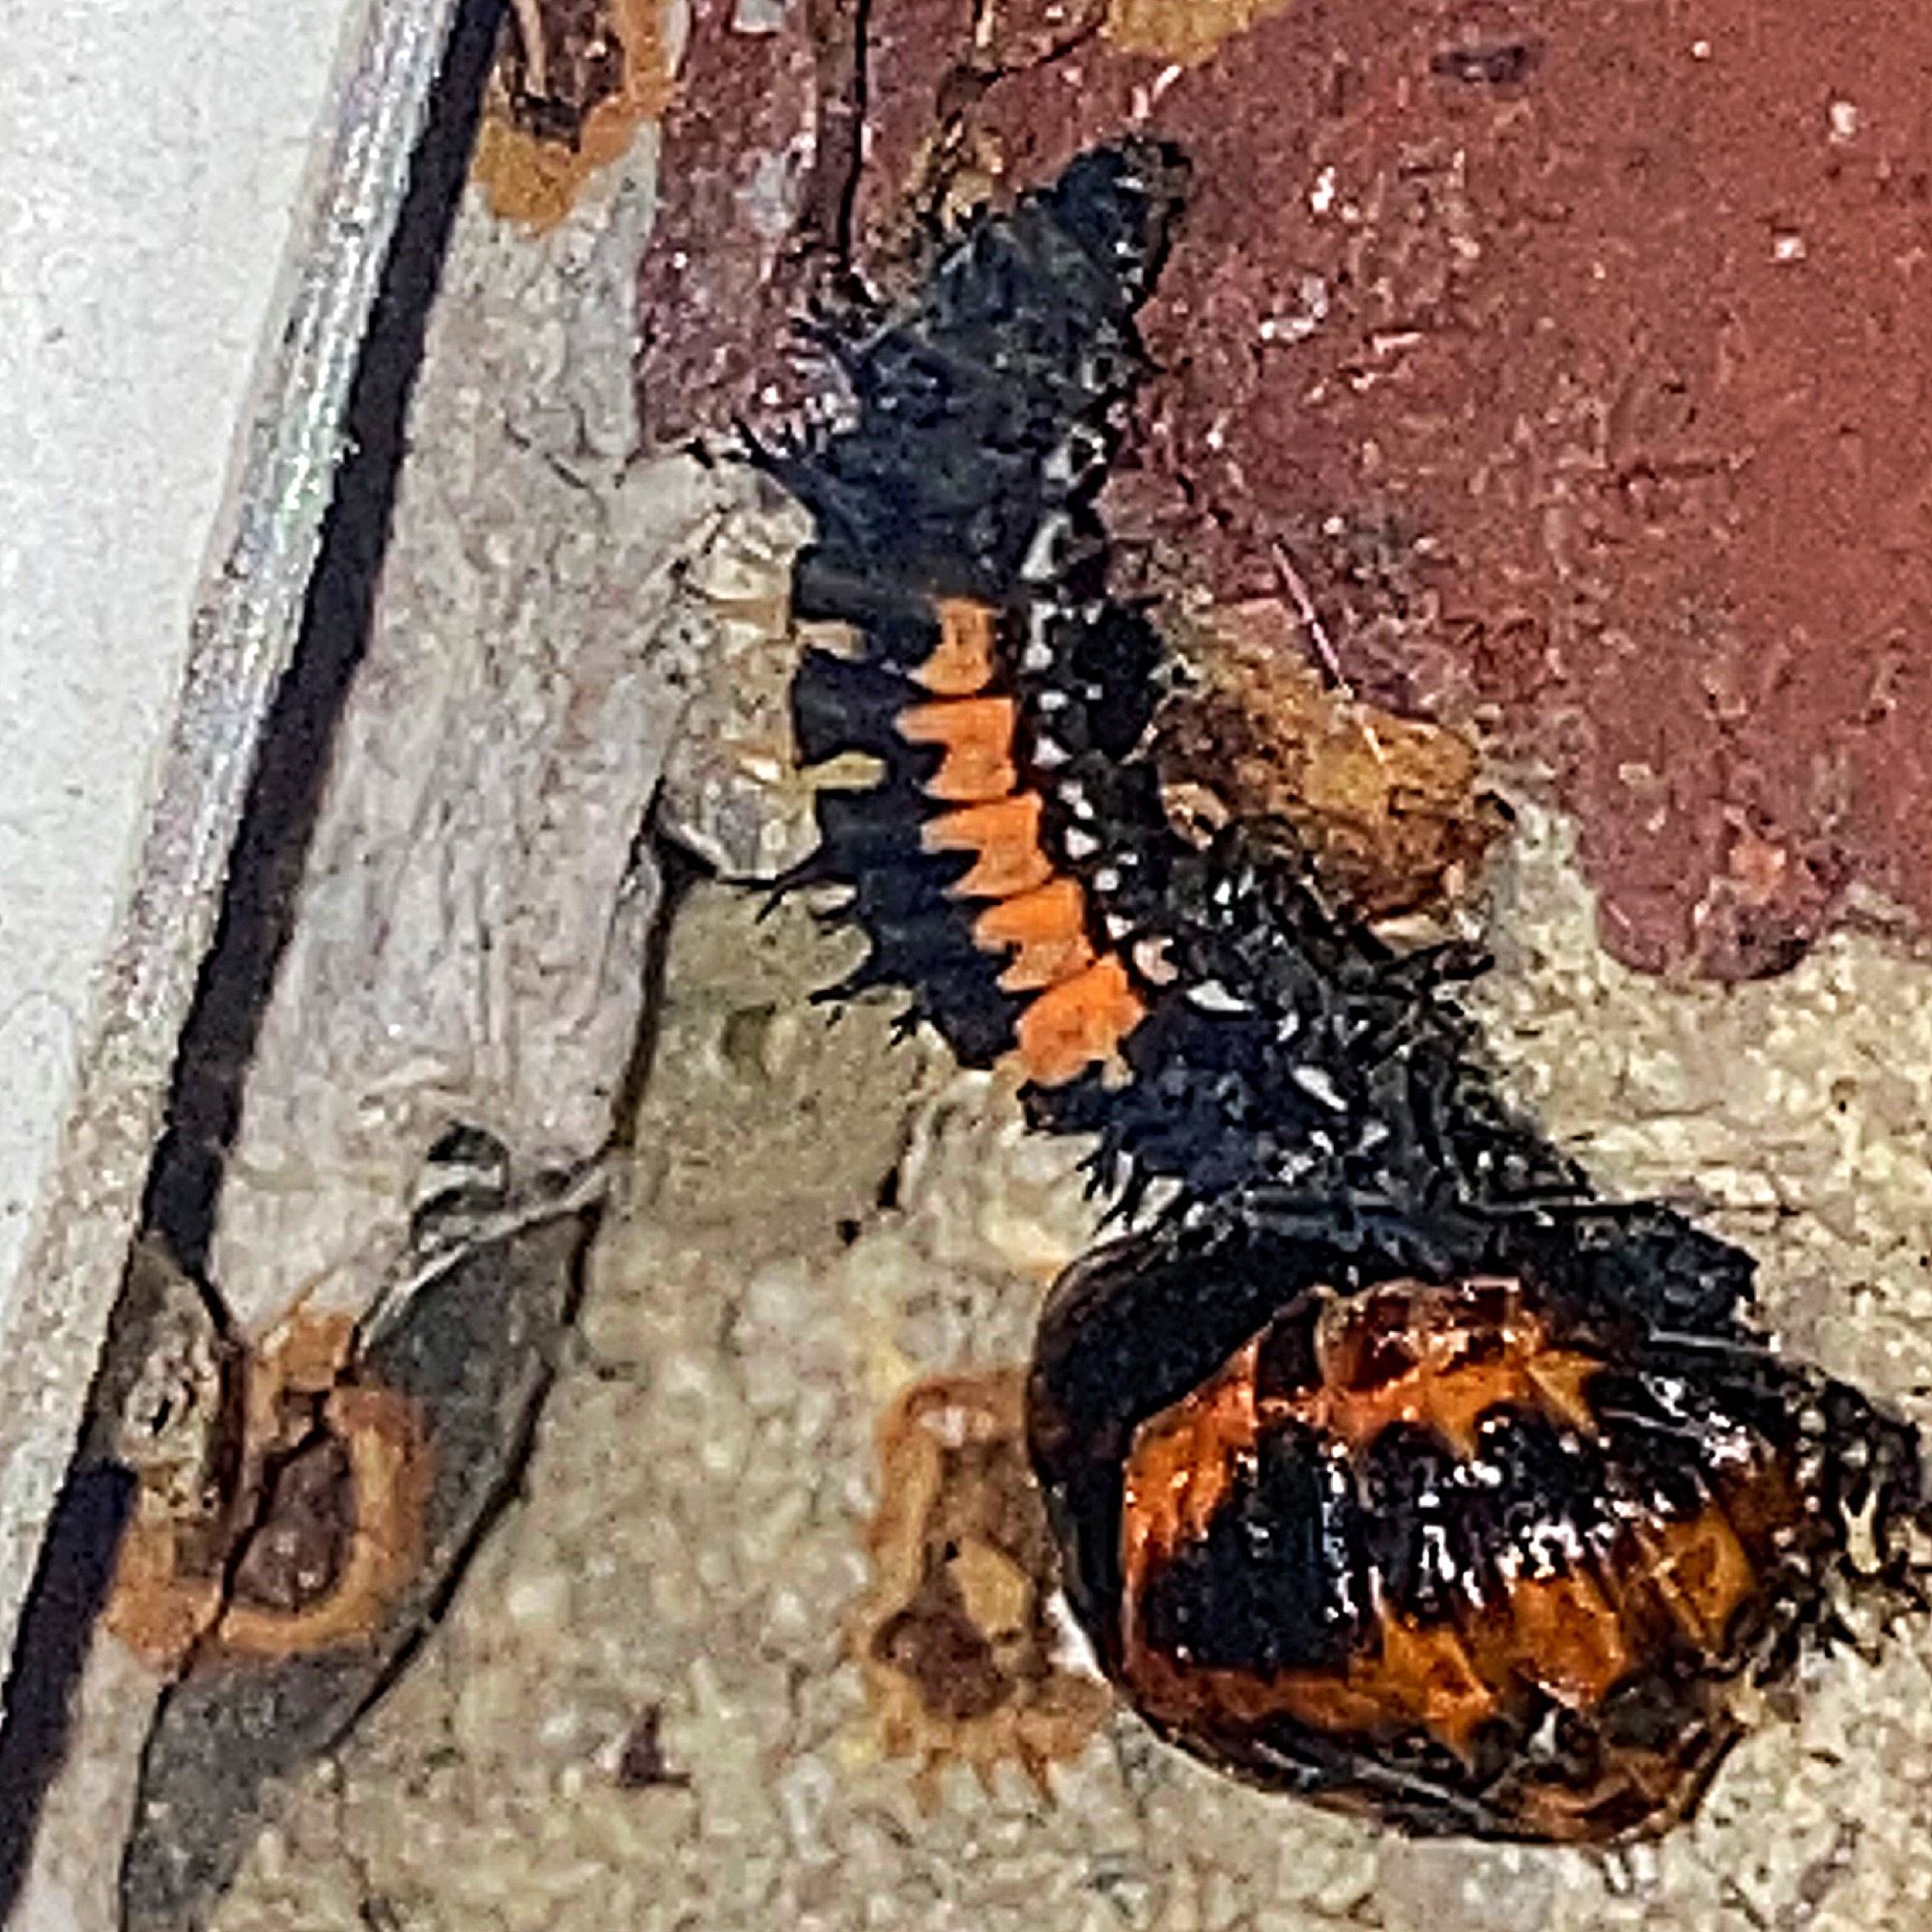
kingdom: Animalia
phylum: Arthropoda
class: Insecta
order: Coleoptera
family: Coccinellidae
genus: Harmonia
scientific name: Harmonia axyridis
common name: Harlequin ladybird
